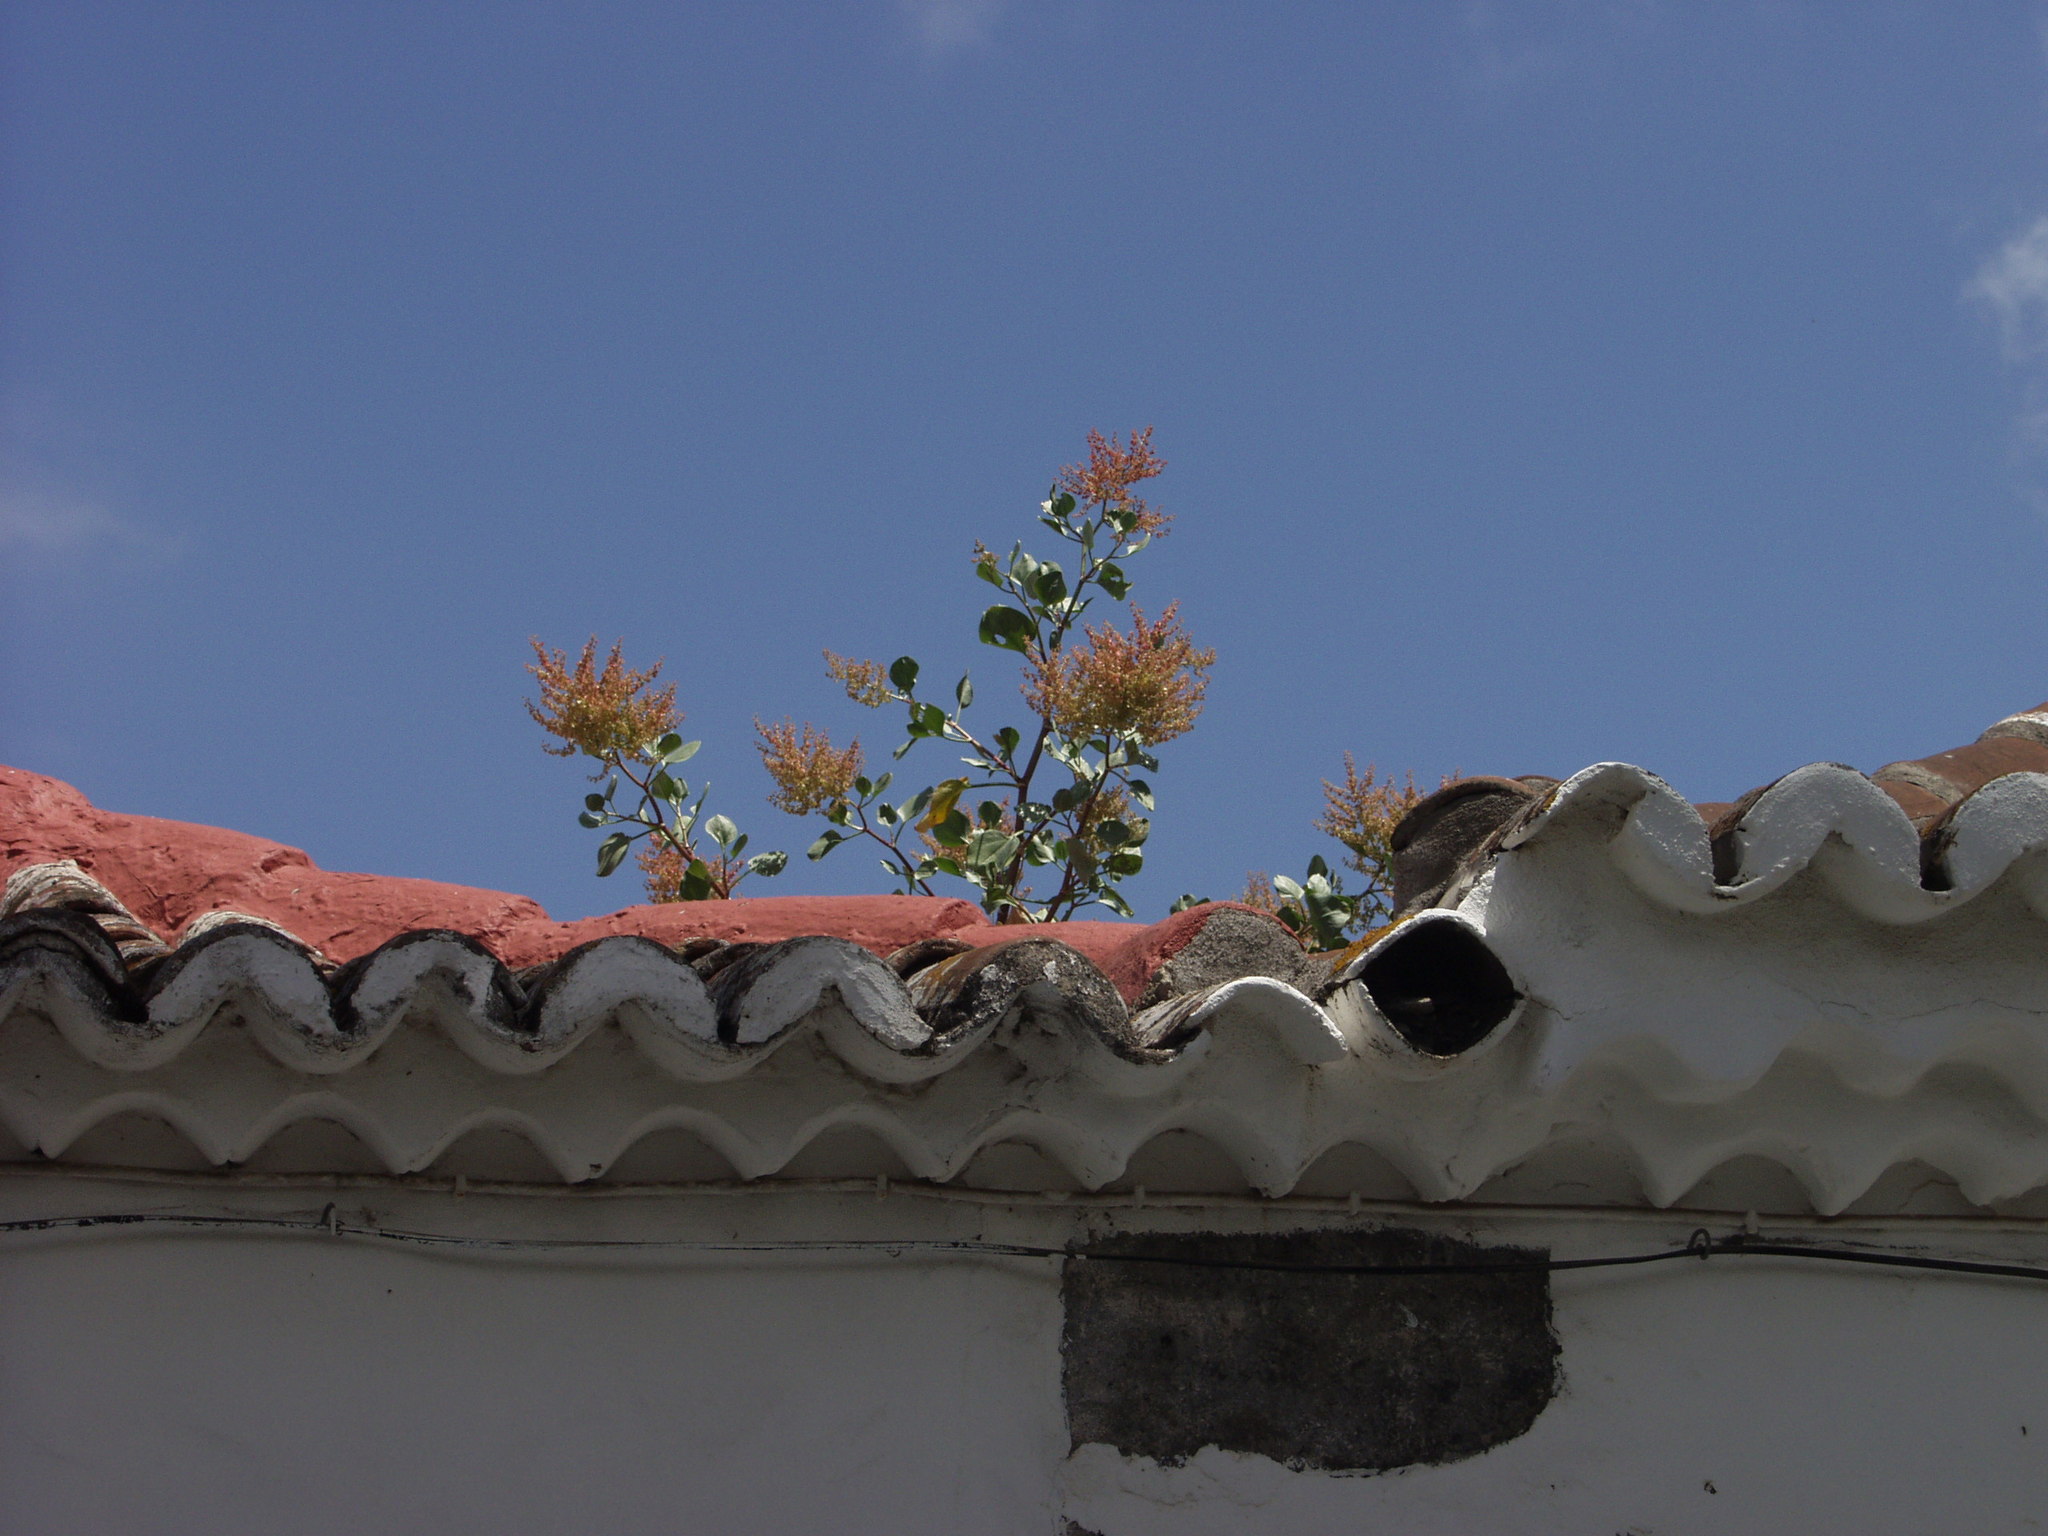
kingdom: Plantae
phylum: Tracheophyta
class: Magnoliopsida
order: Caryophyllales
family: Polygonaceae
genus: Rumex
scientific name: Rumex lunaria
